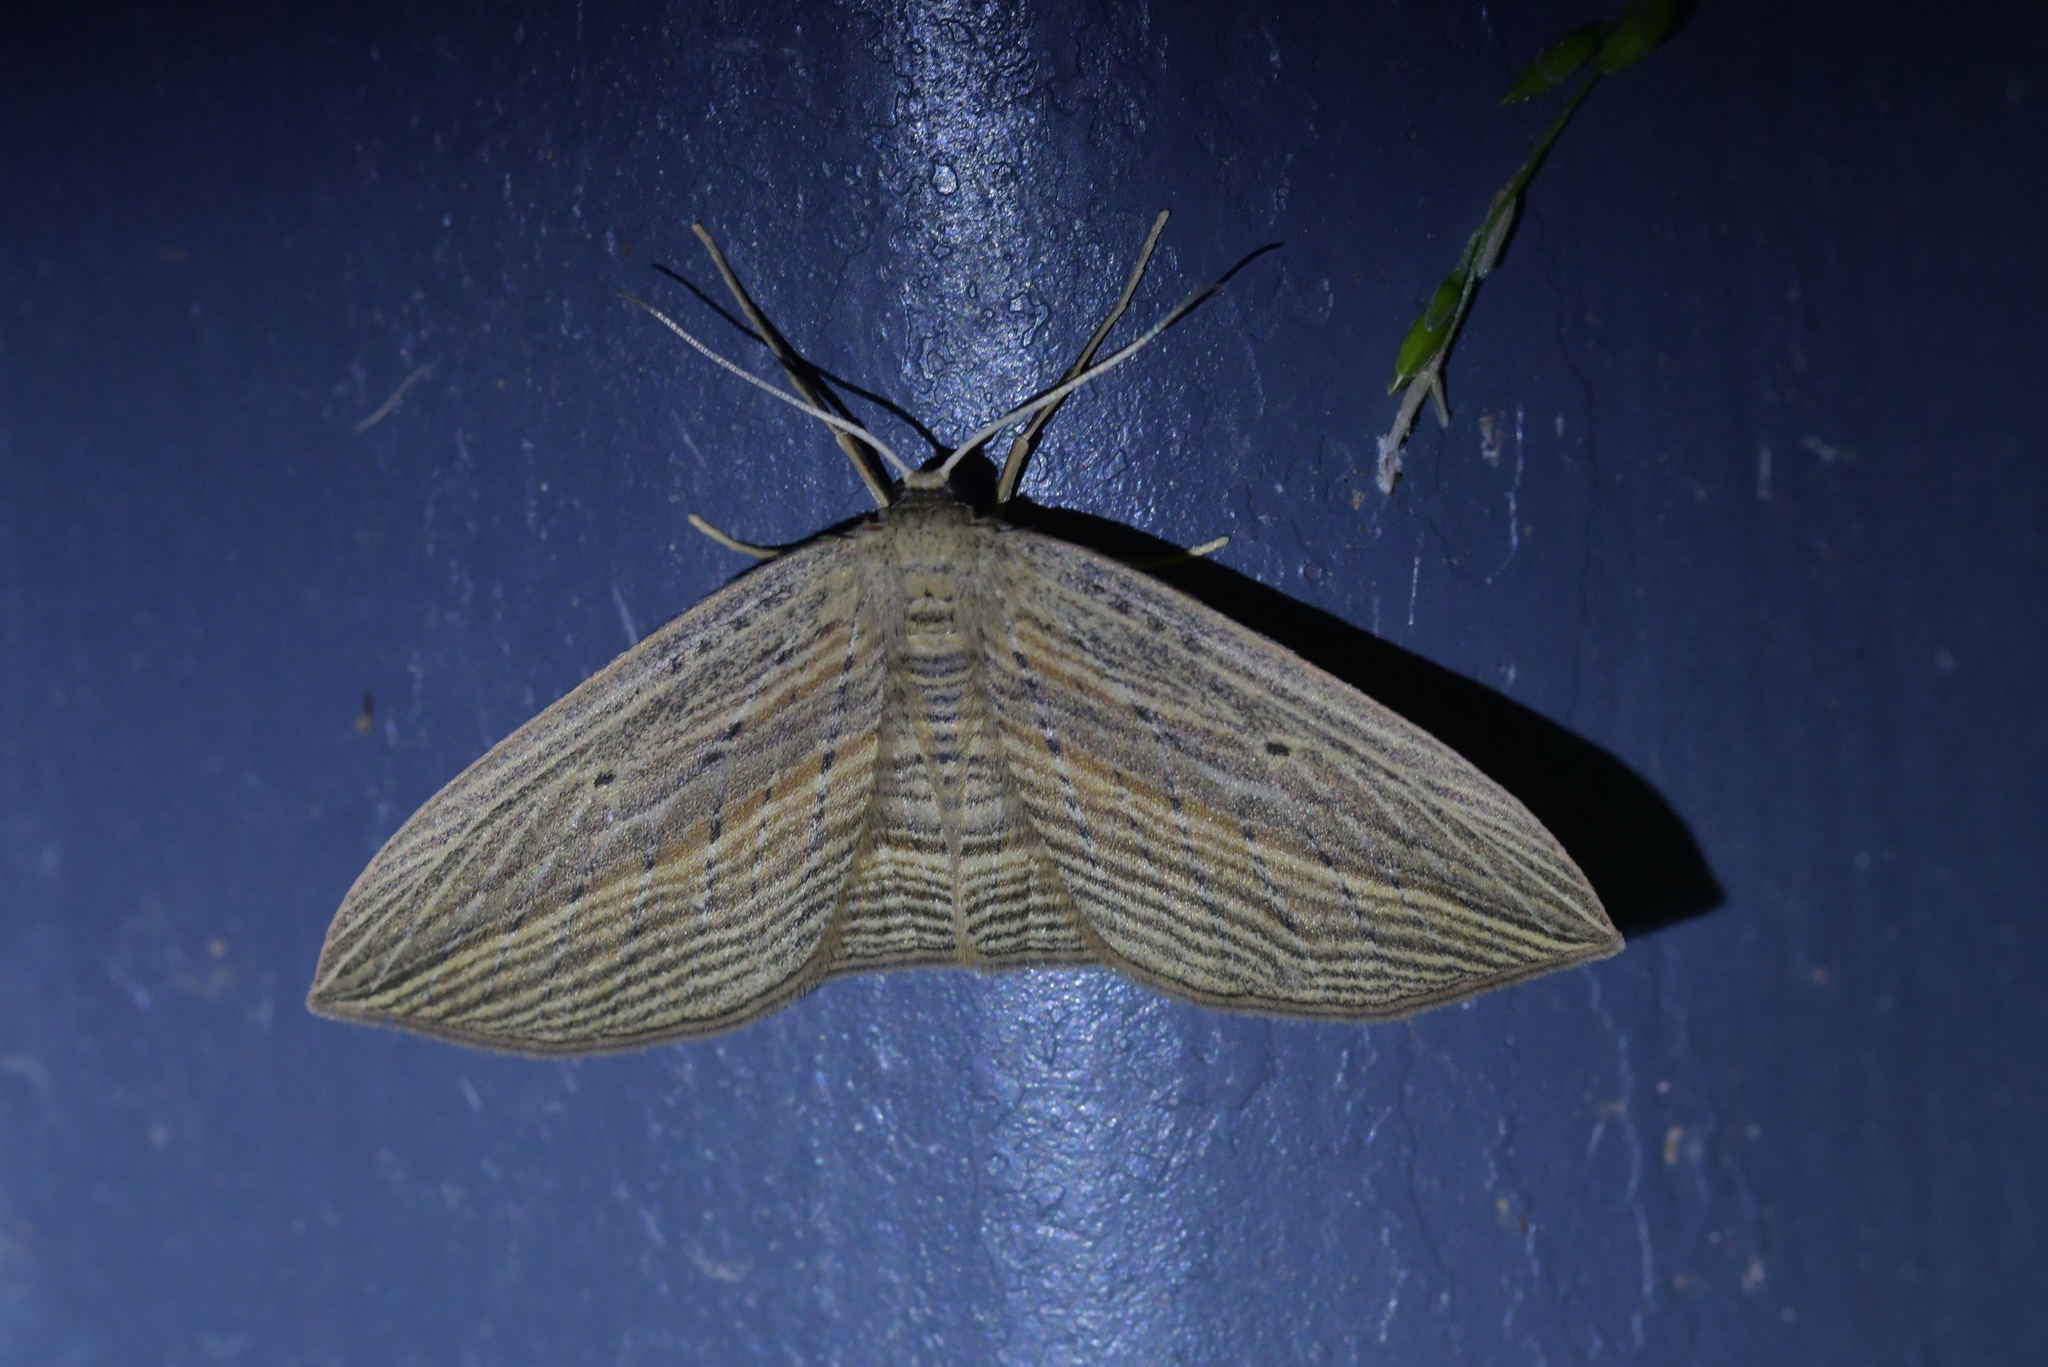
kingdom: Animalia
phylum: Arthropoda
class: Insecta
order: Lepidoptera
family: Geometridae
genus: Epiphryne
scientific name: Epiphryne verriculata
